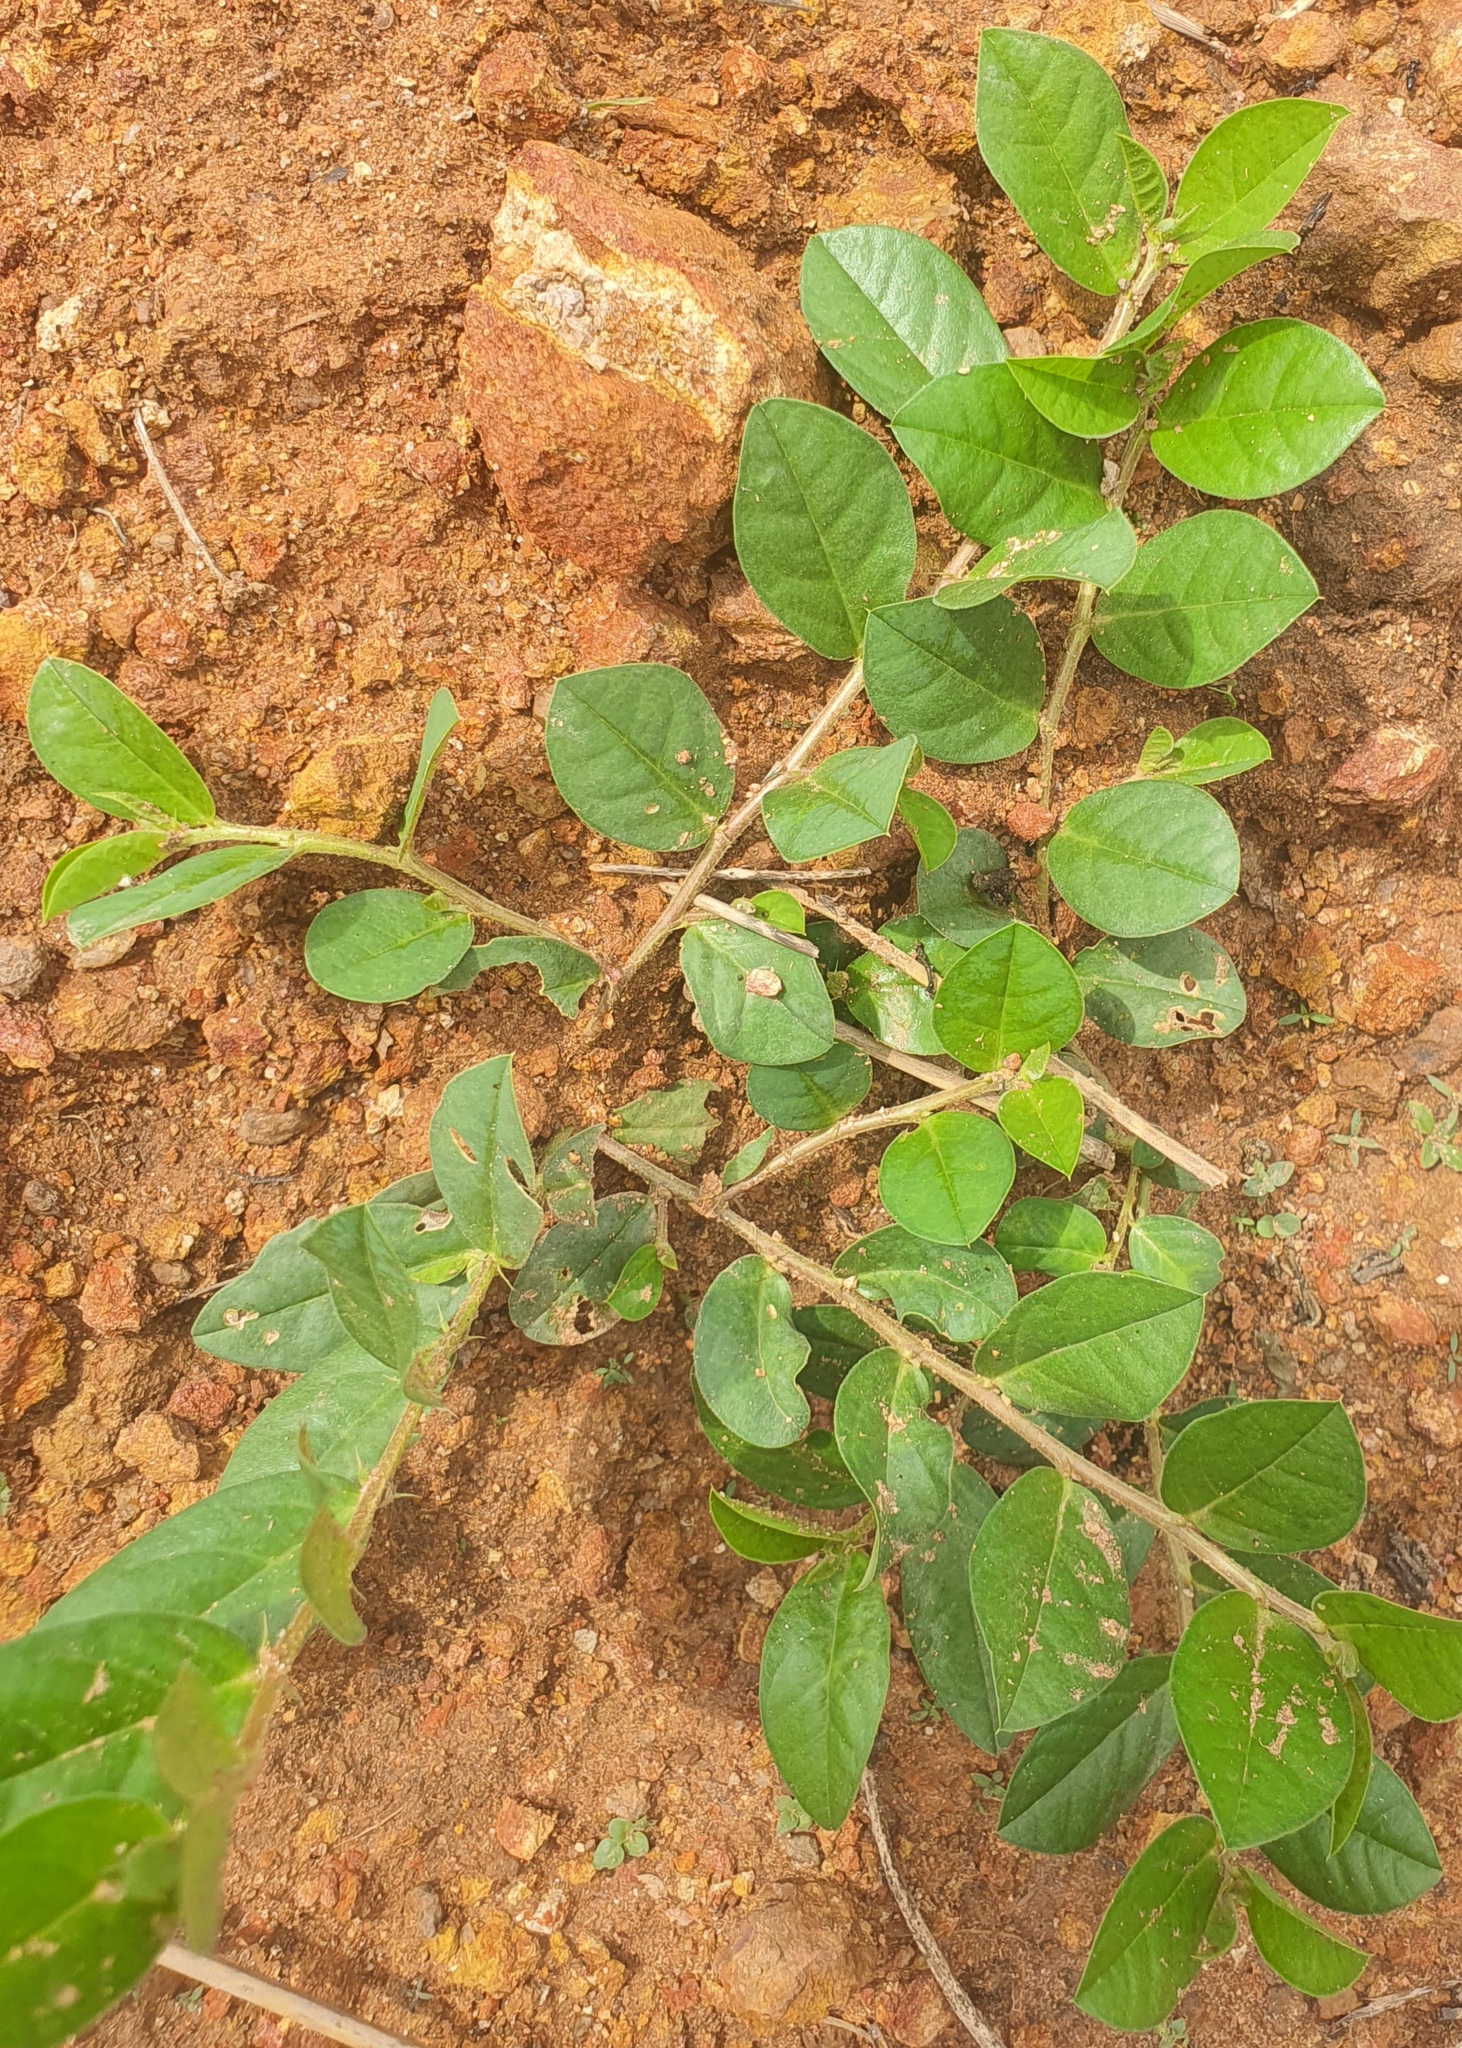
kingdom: Plantae
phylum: Tracheophyta
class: Magnoliopsida
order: Fabales
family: Fabaceae
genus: Indigofera
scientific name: Indigofera nummulariifolia
